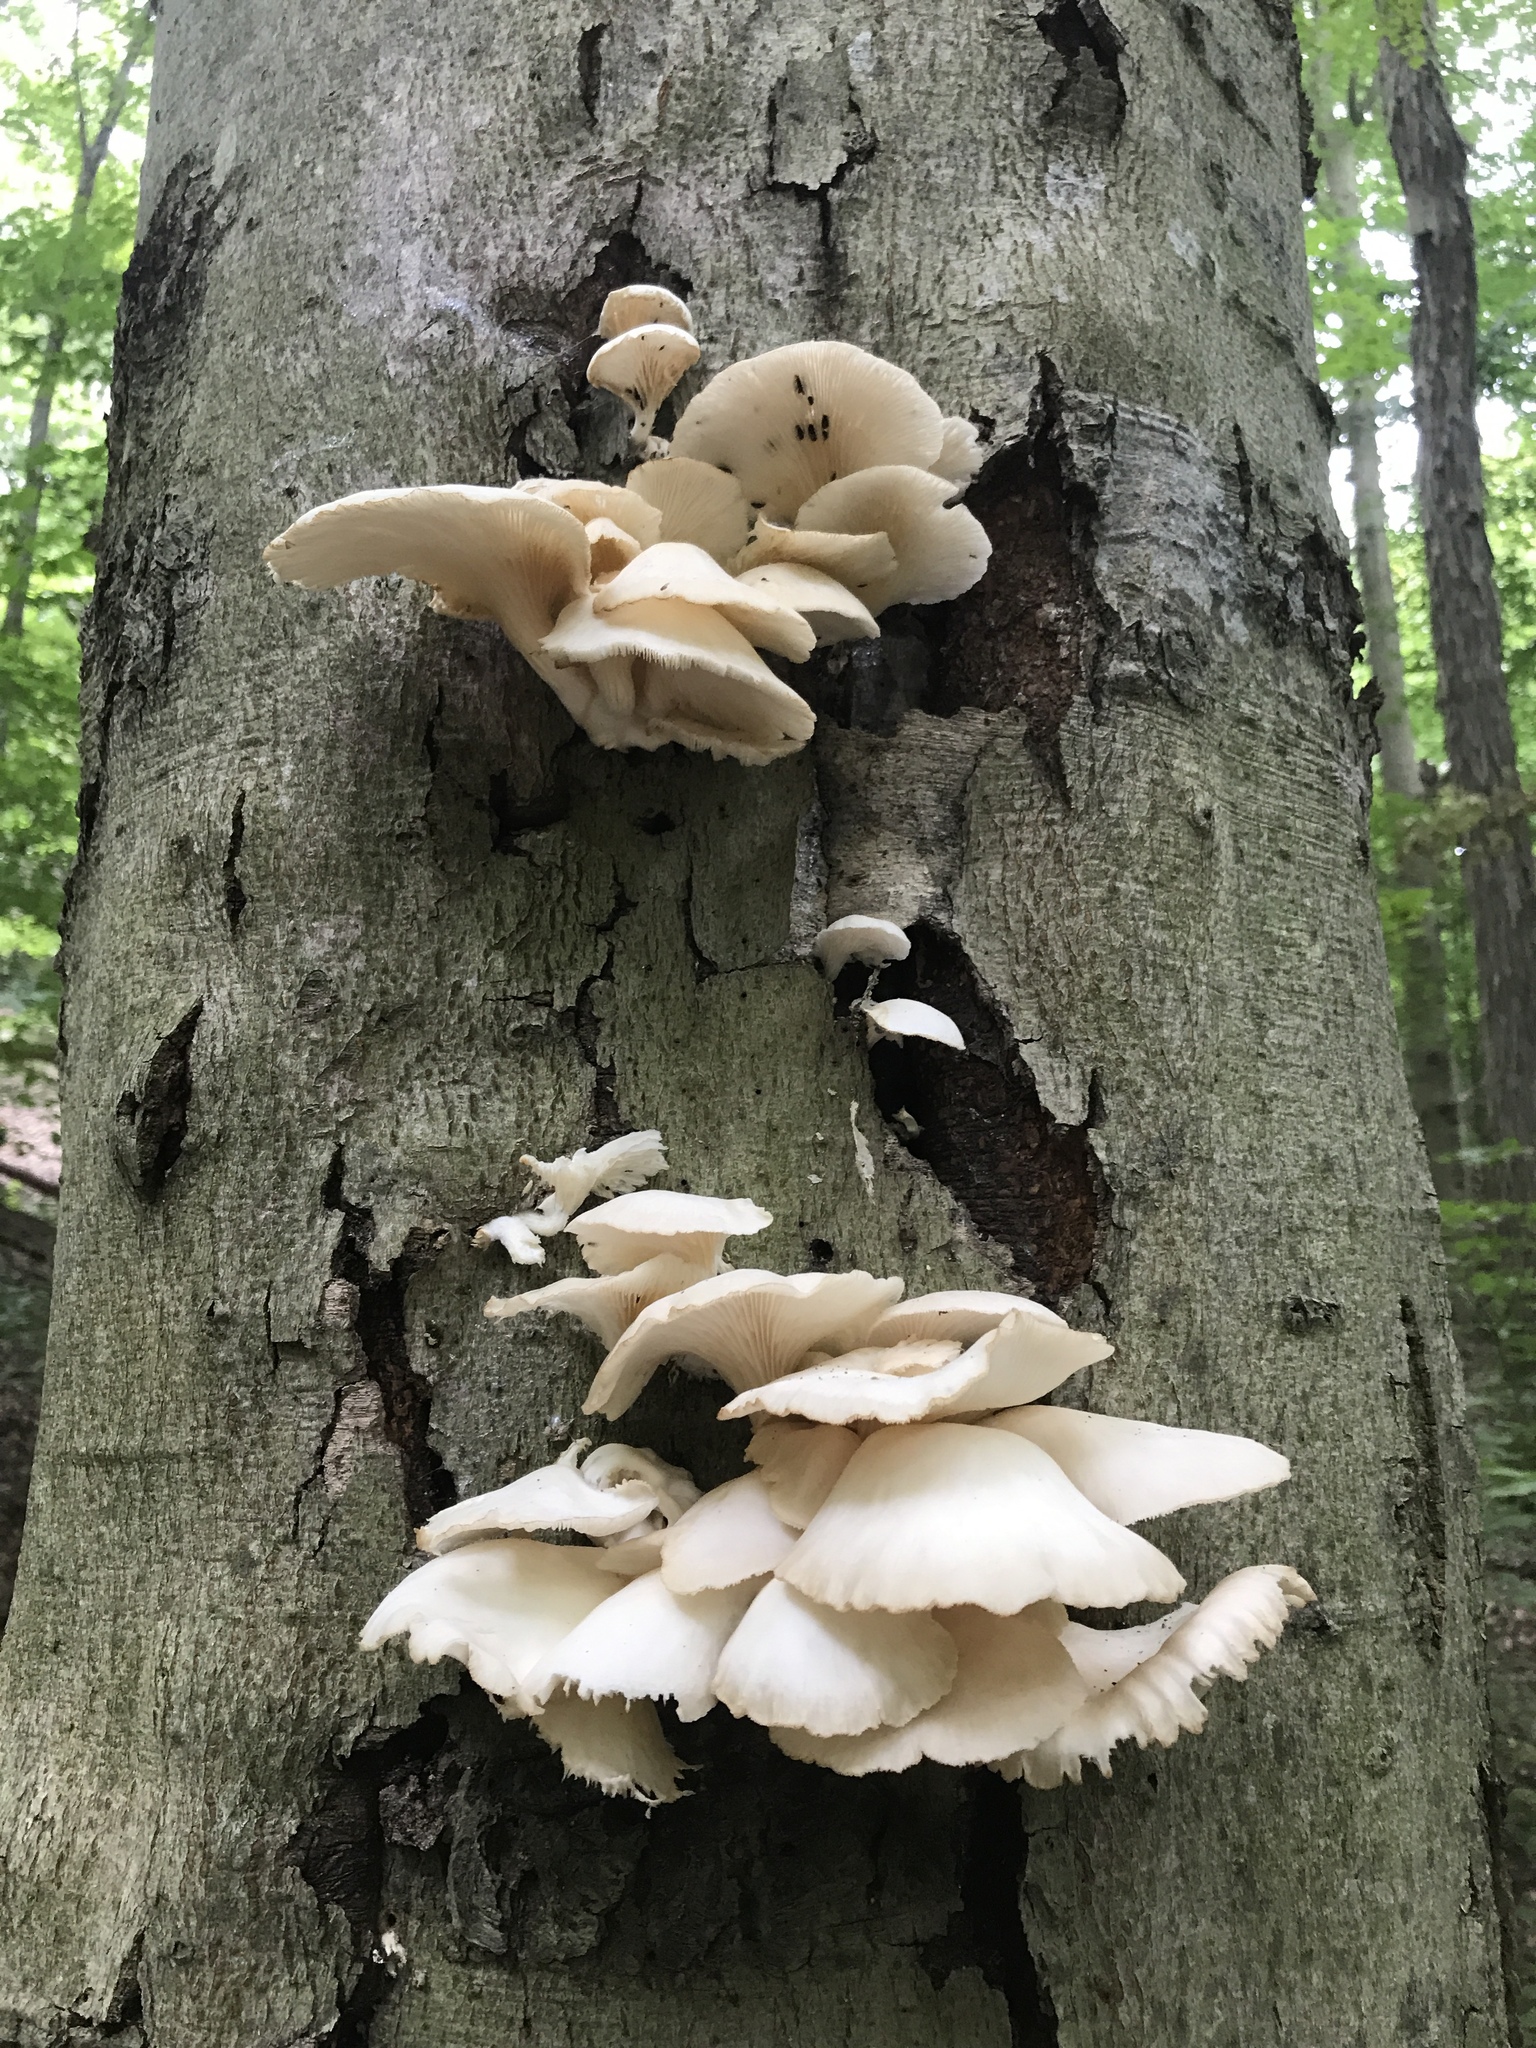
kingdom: Fungi
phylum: Basidiomycota
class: Agaricomycetes
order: Agaricales
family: Pleurotaceae
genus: Pleurotus
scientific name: Pleurotus pulmonarius
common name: Pale oyster
